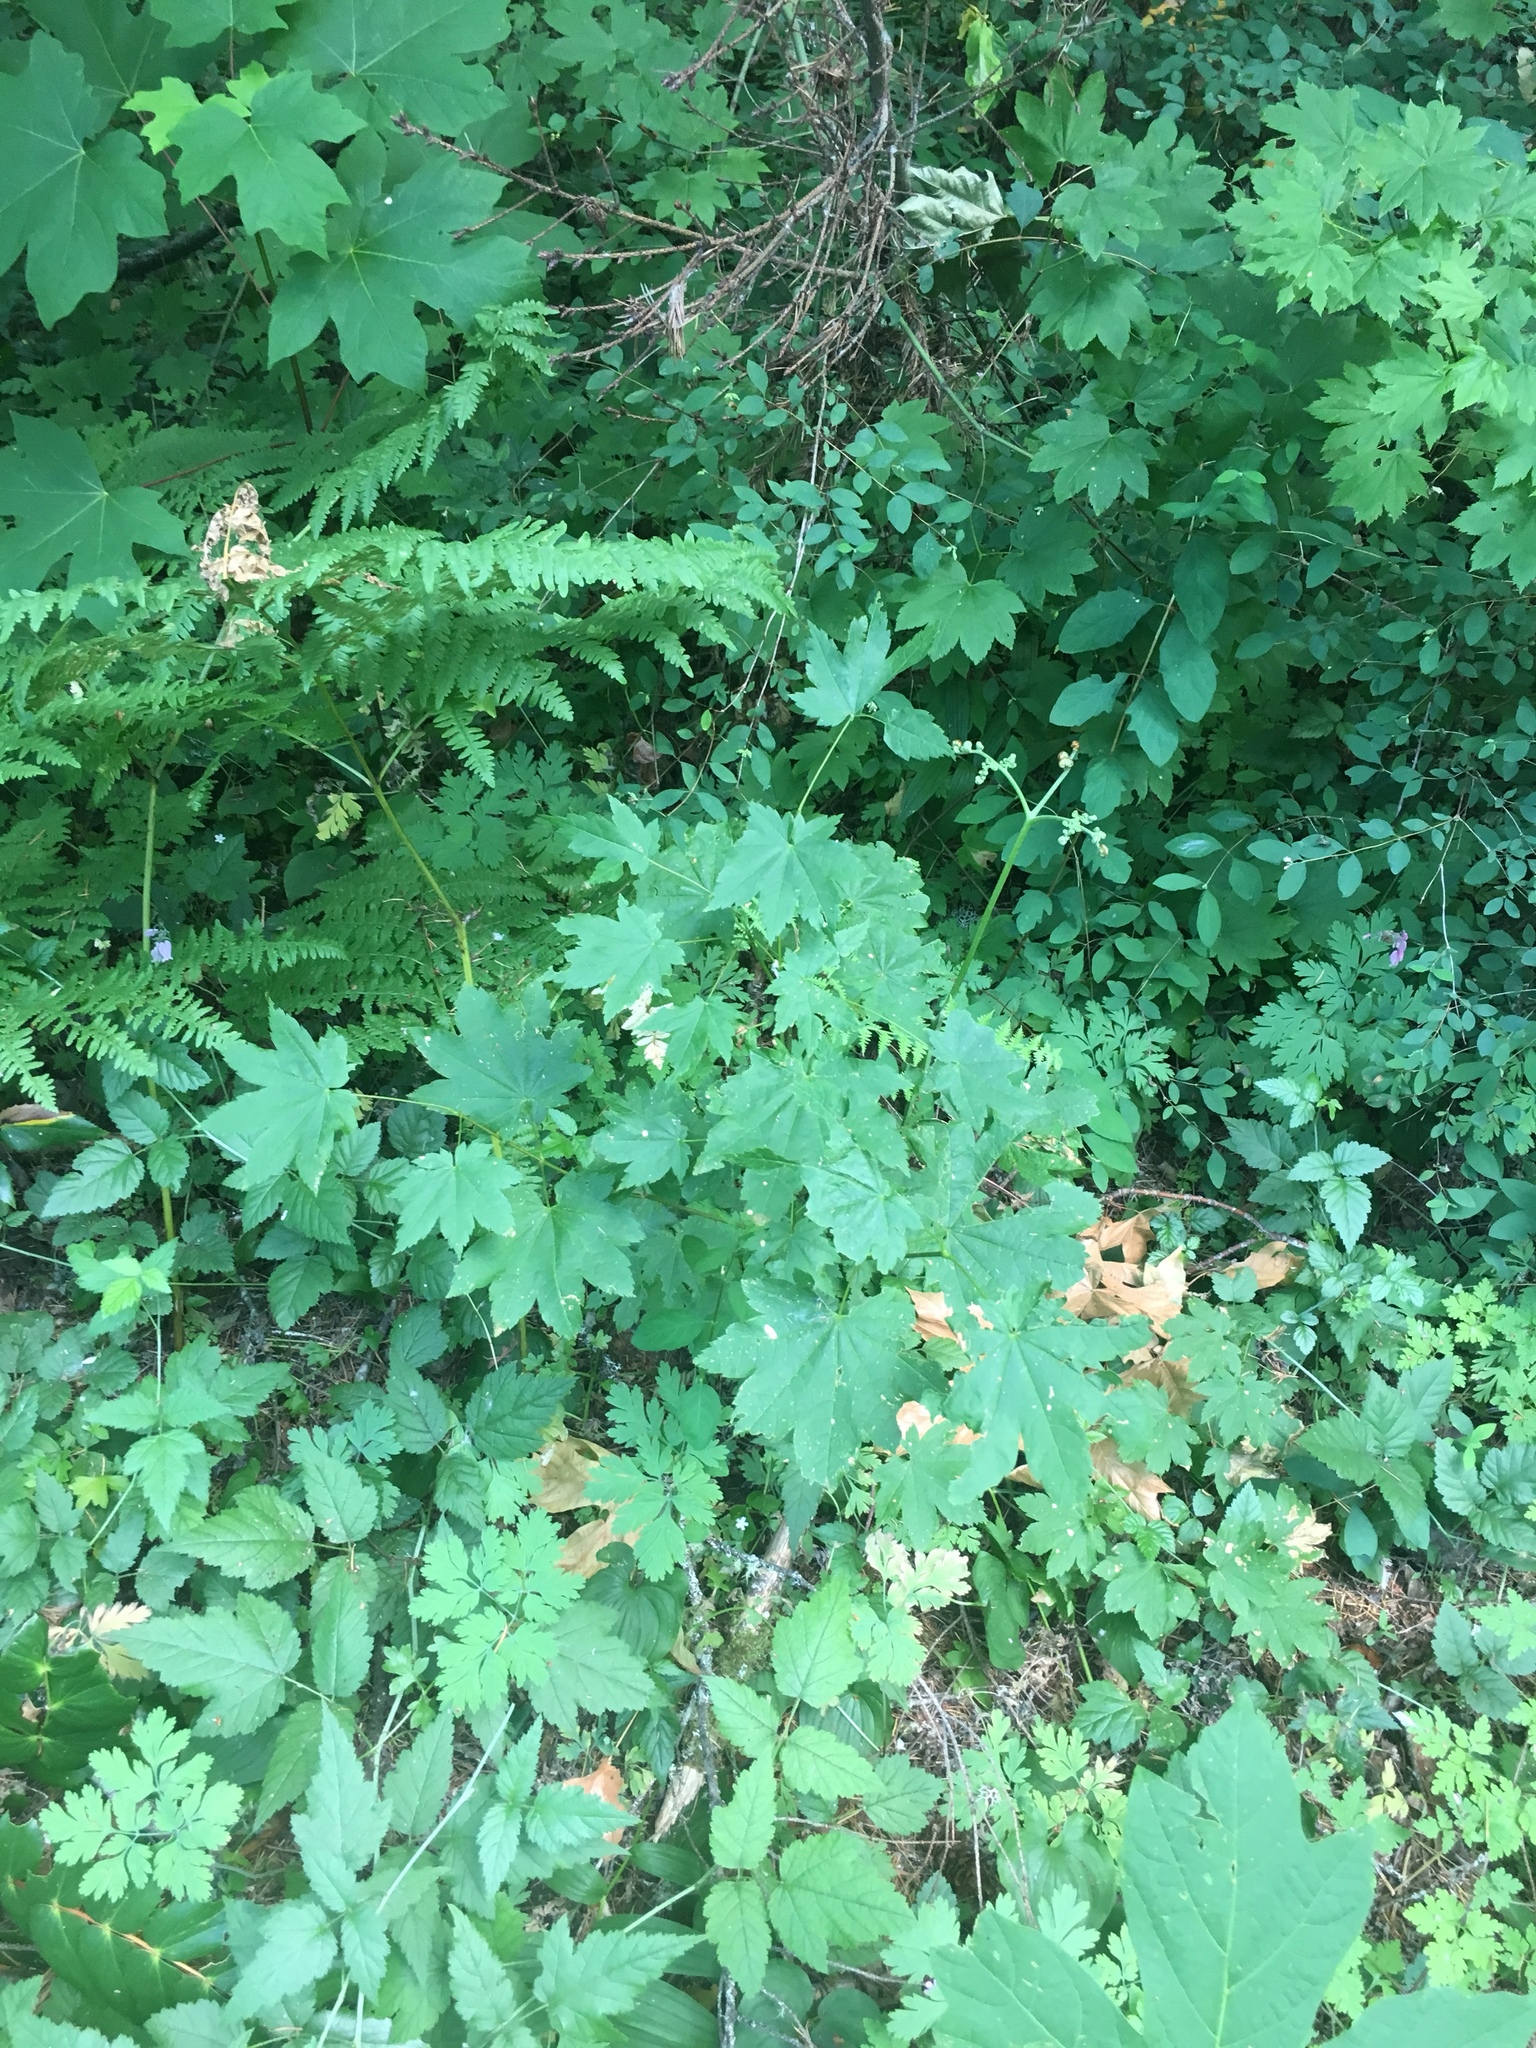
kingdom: Plantae
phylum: Tracheophyta
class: Magnoliopsida
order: Sapindales
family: Sapindaceae
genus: Acer
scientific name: Acer circinatum
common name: Vine maple
